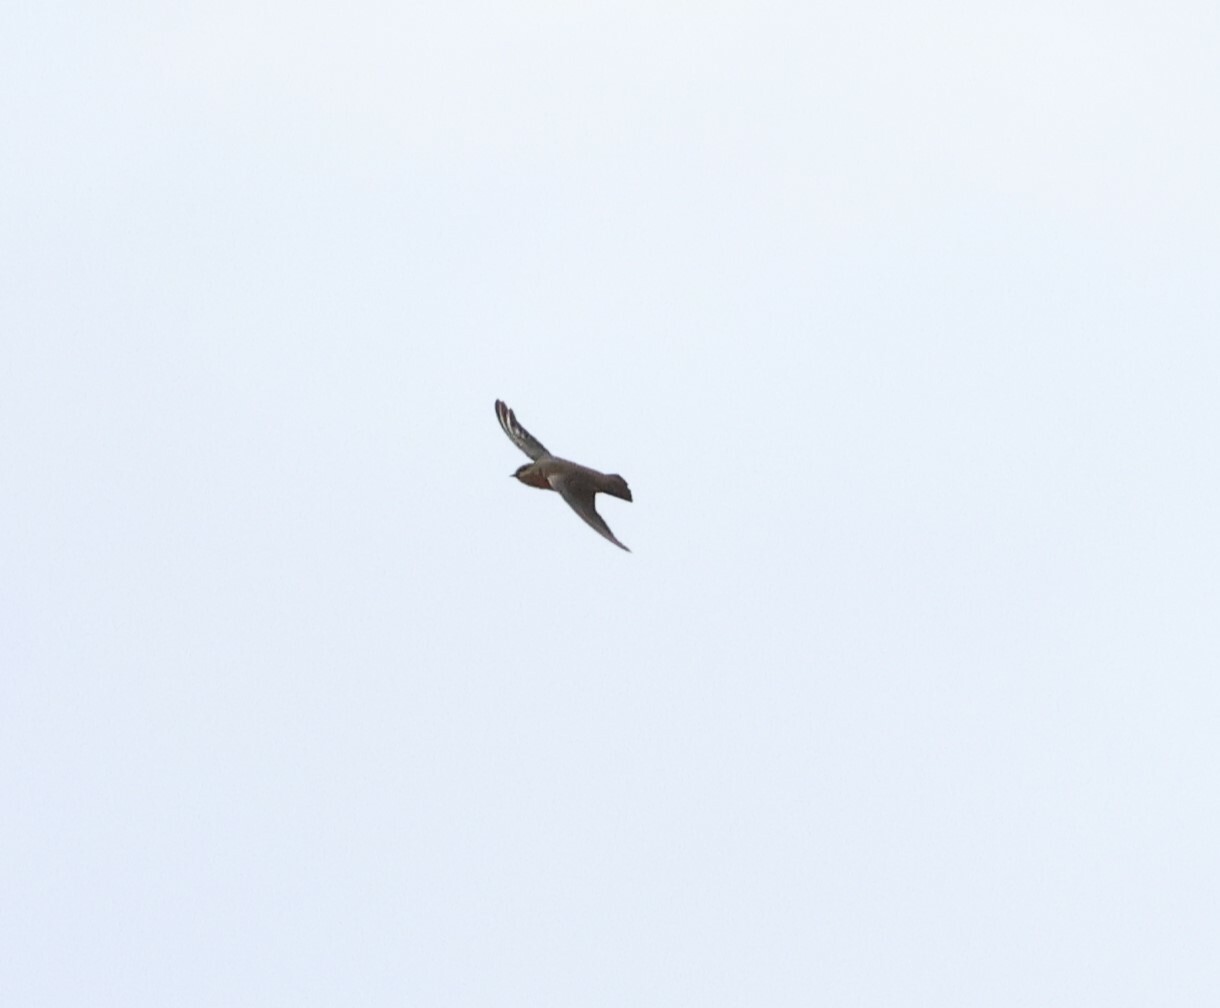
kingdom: Animalia
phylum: Chordata
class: Aves
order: Passeriformes
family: Hirundinidae
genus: Ptyonoprogne
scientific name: Ptyonoprogne fuligula
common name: Rock martin
